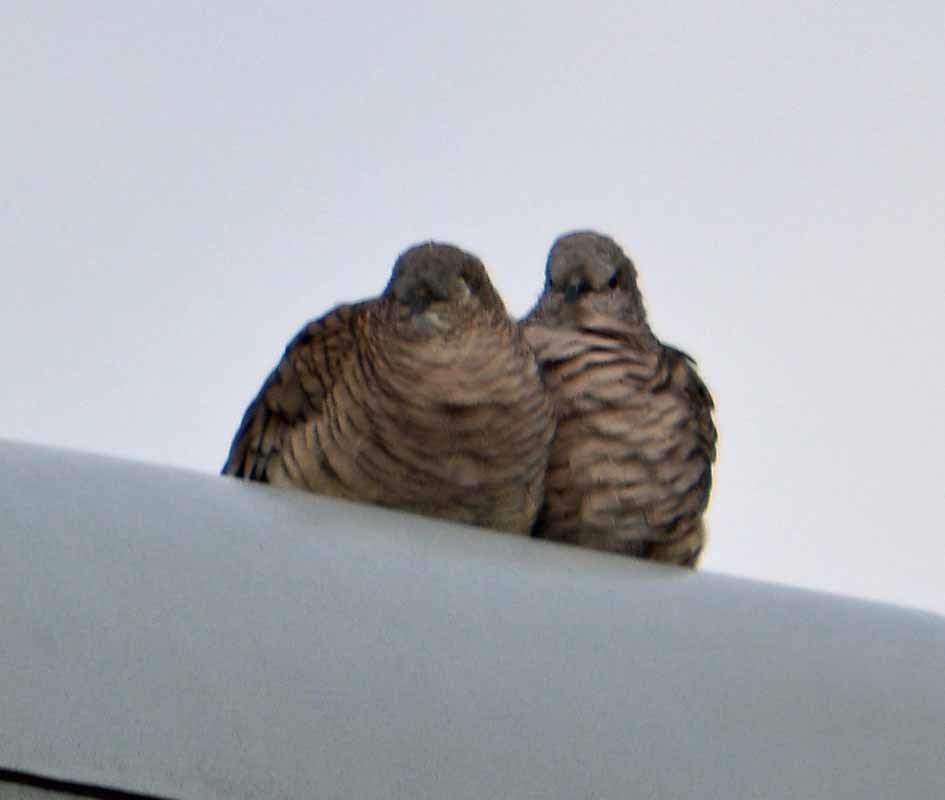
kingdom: Animalia
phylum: Chordata
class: Aves
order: Columbiformes
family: Columbidae
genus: Columbina
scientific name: Columbina inca
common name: Inca dove
